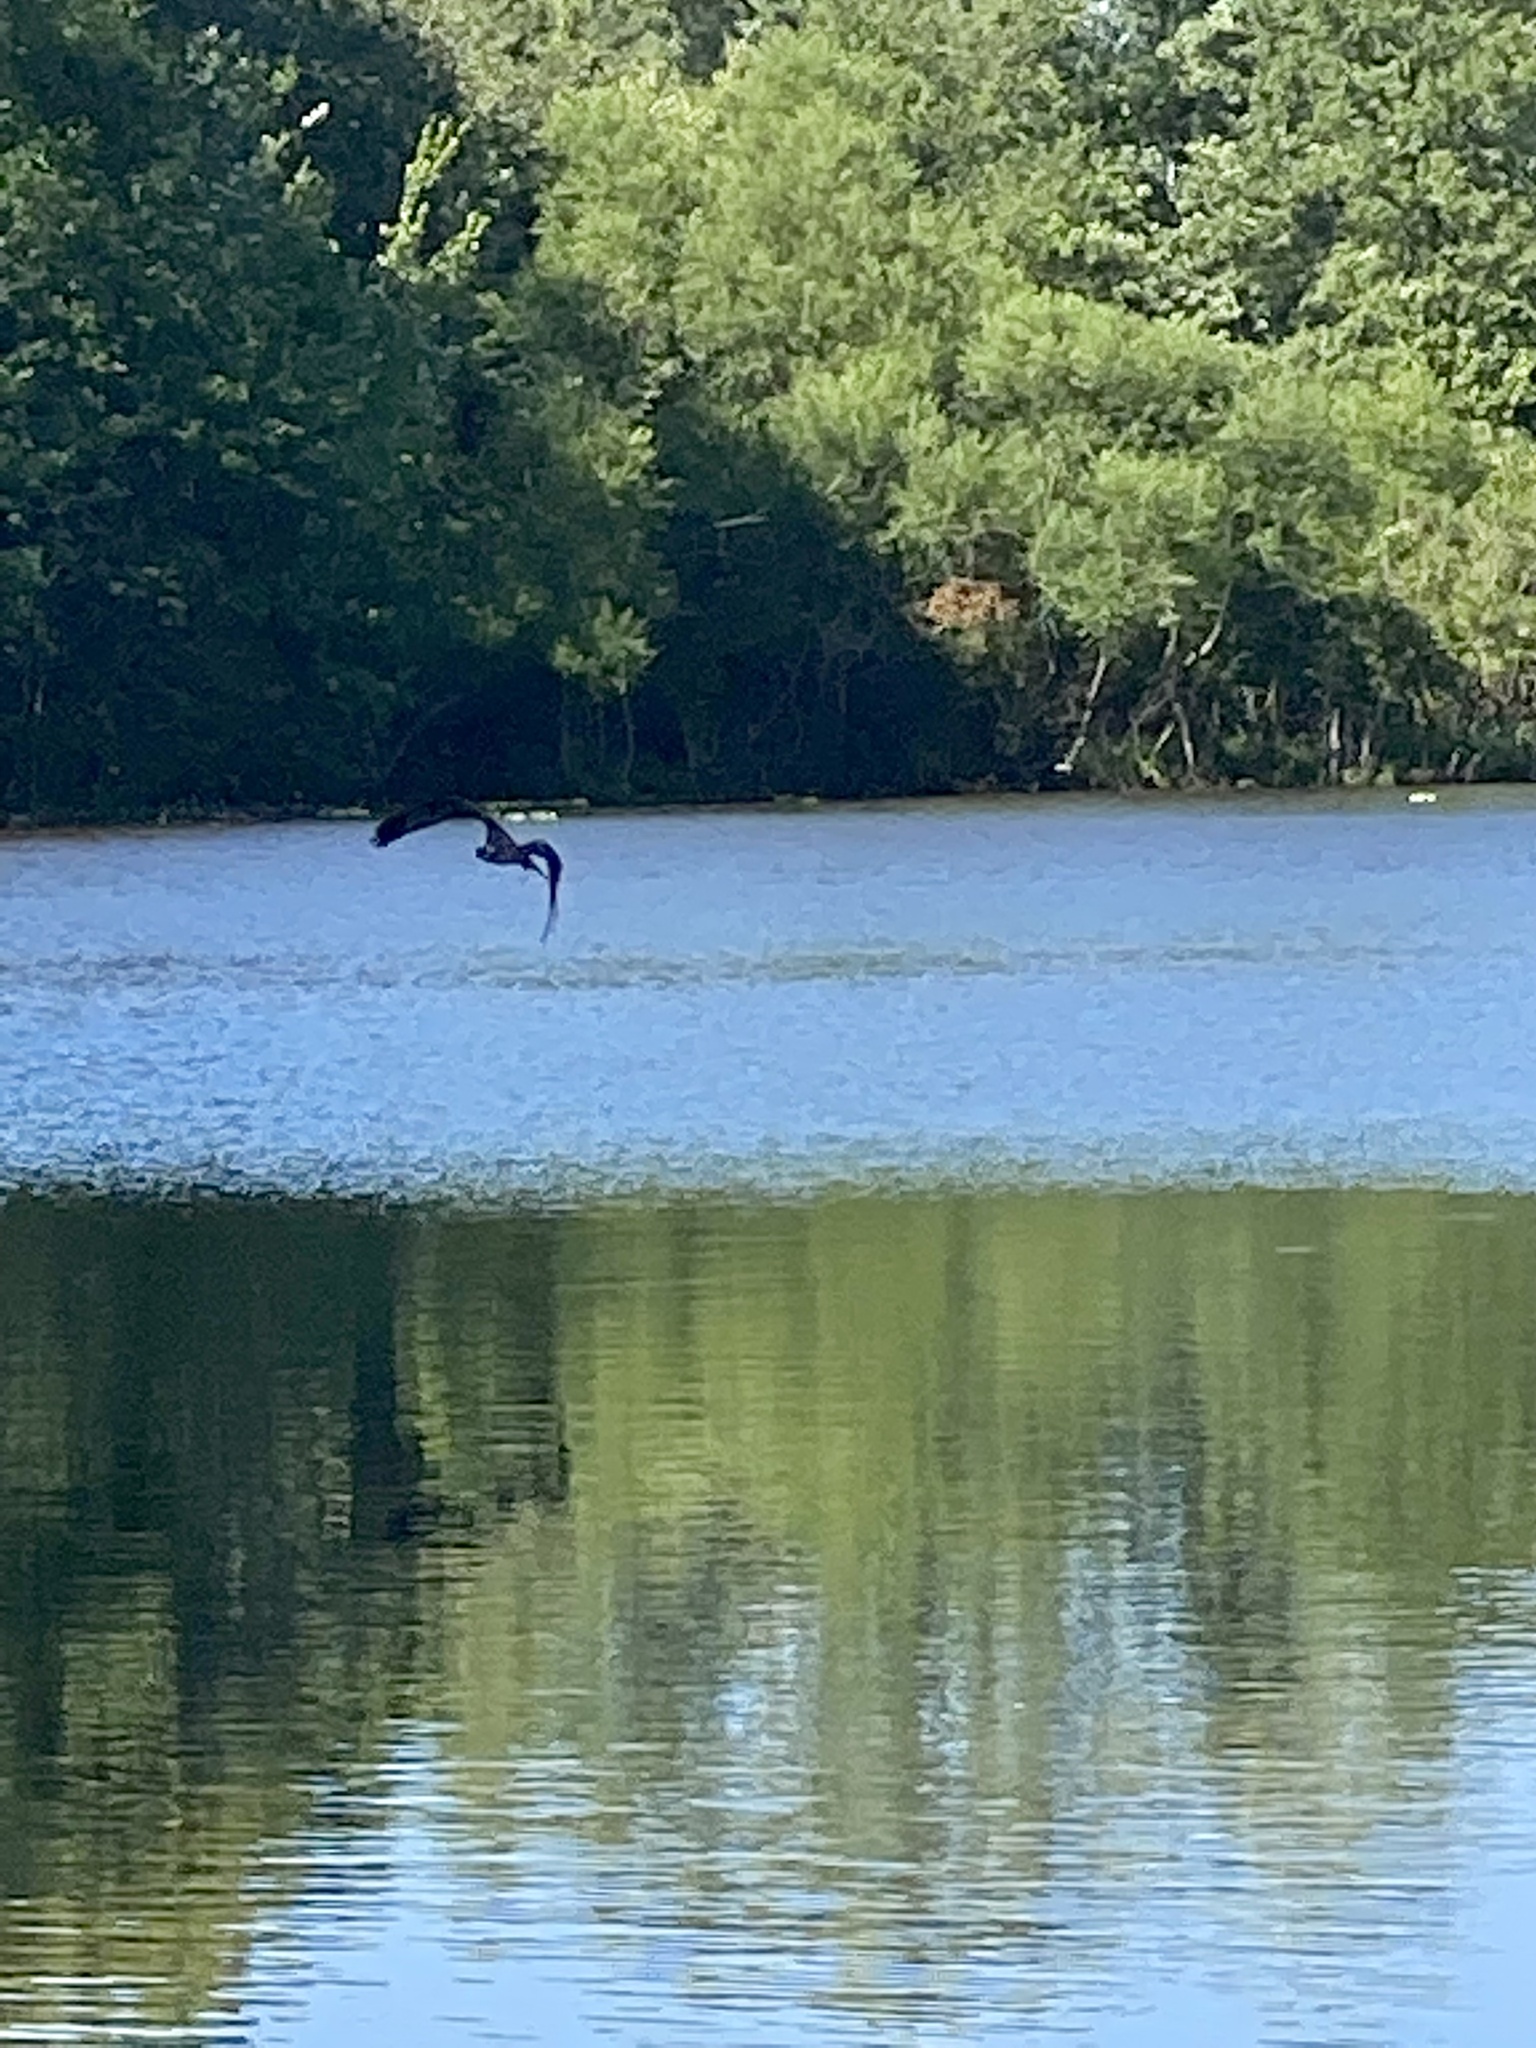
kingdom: Animalia
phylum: Chordata
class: Aves
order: Accipitriformes
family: Pandionidae
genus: Pandion
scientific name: Pandion haliaetus
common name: Osprey
